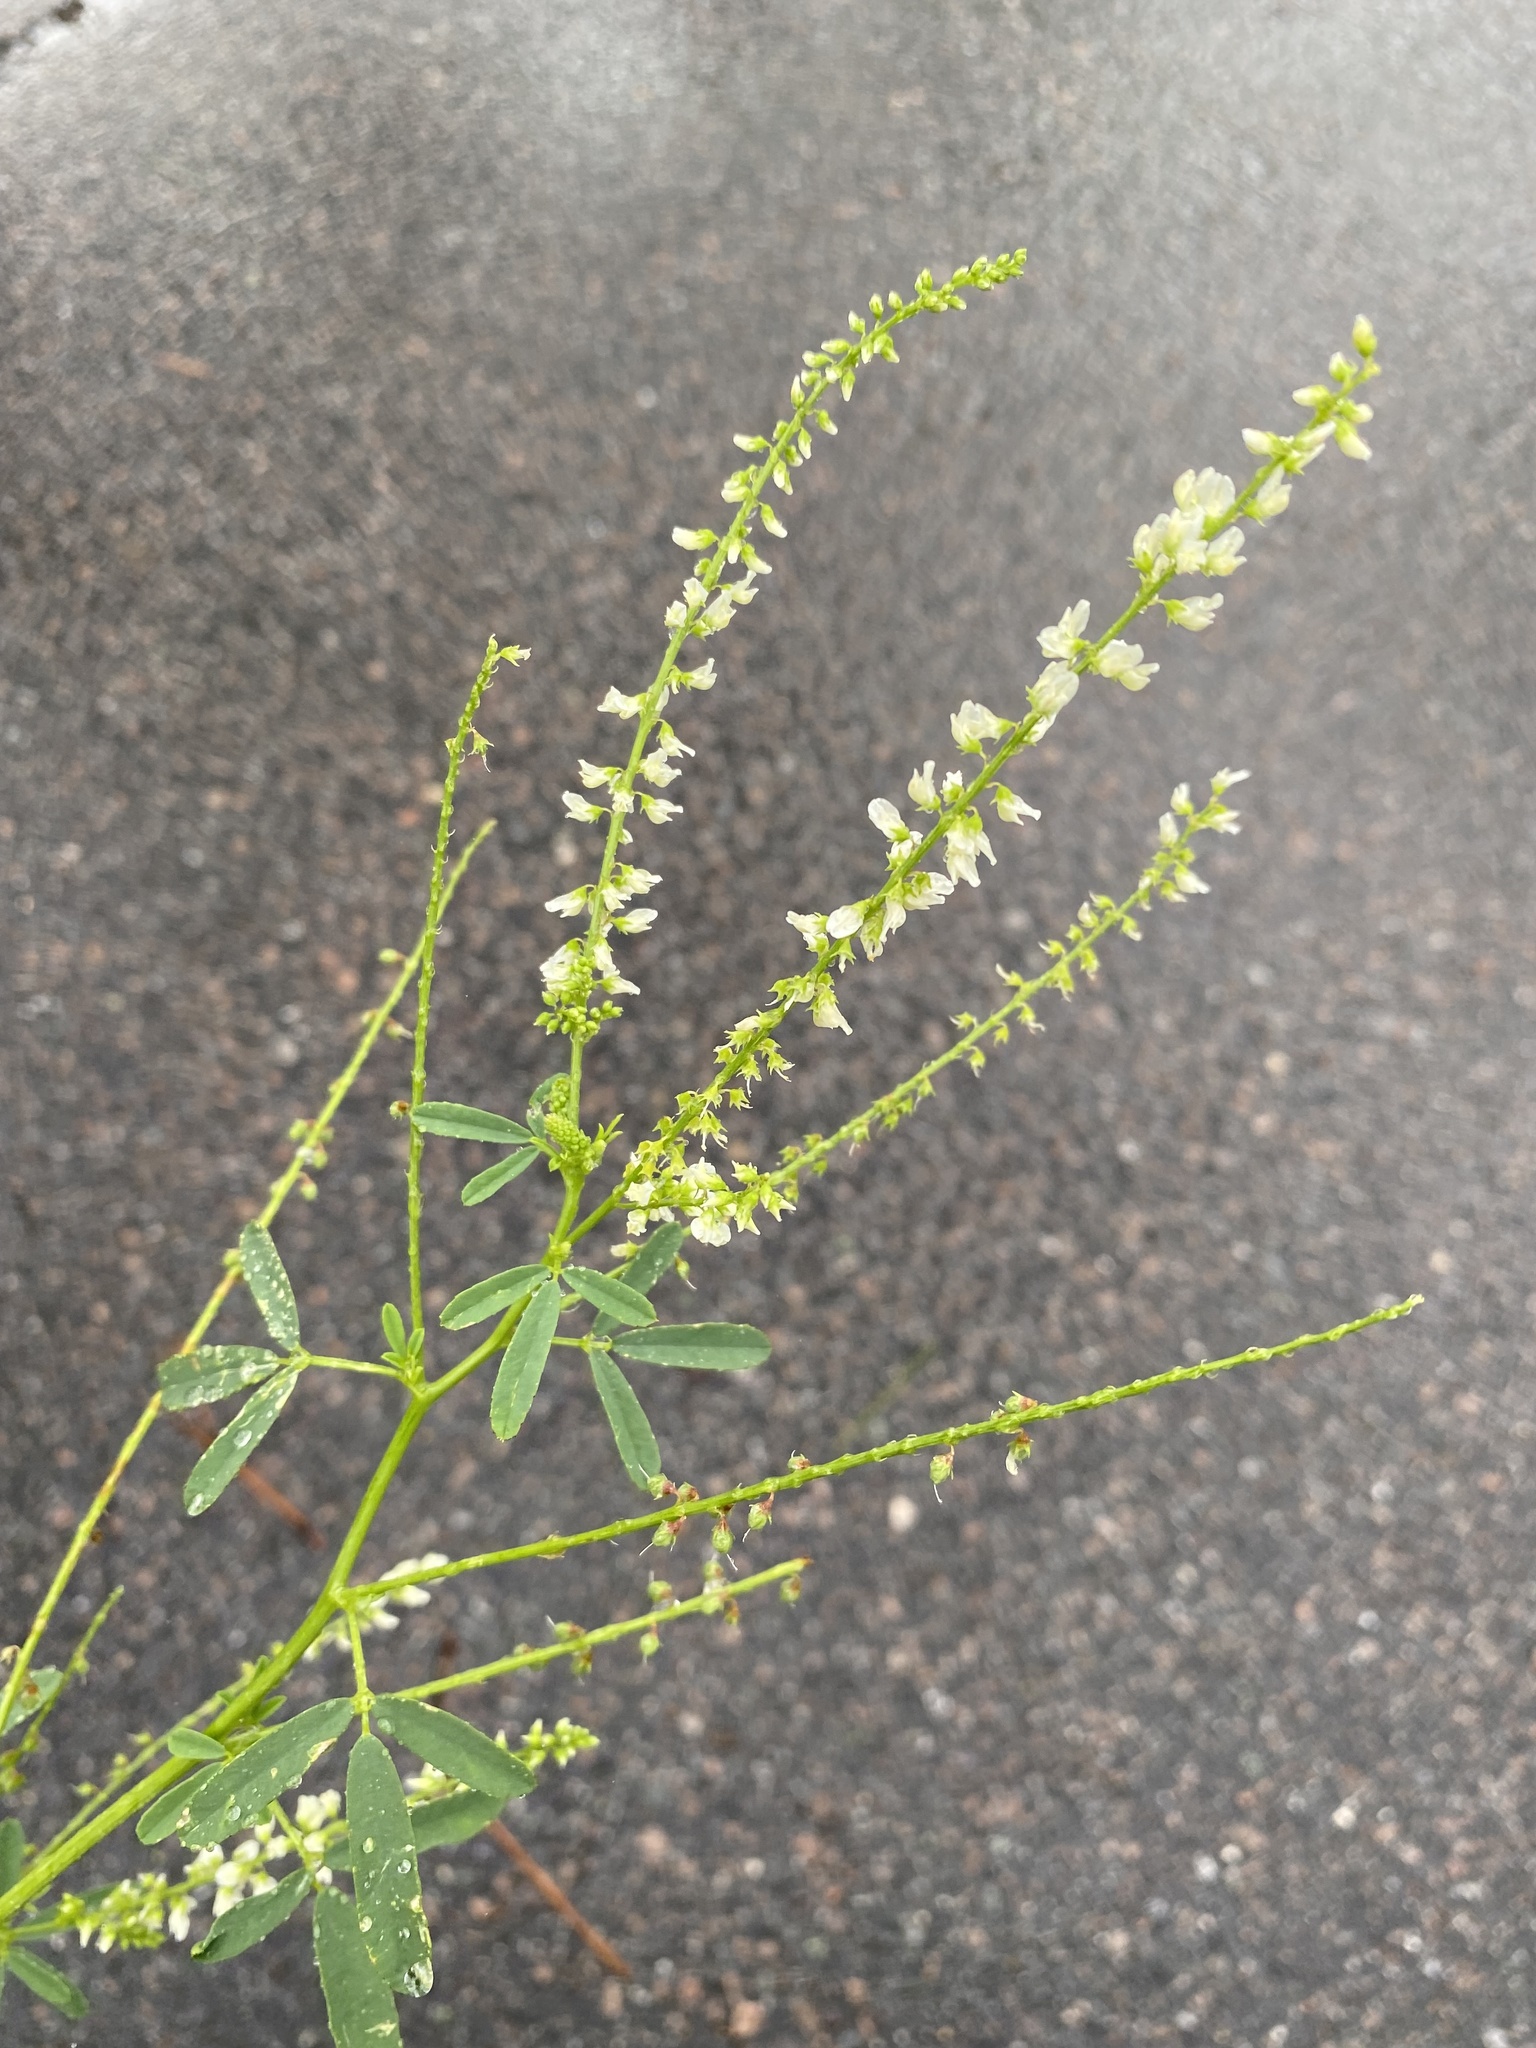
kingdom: Plantae
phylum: Tracheophyta
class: Magnoliopsida
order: Fabales
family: Fabaceae
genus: Melilotus
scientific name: Melilotus albus
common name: White melilot
